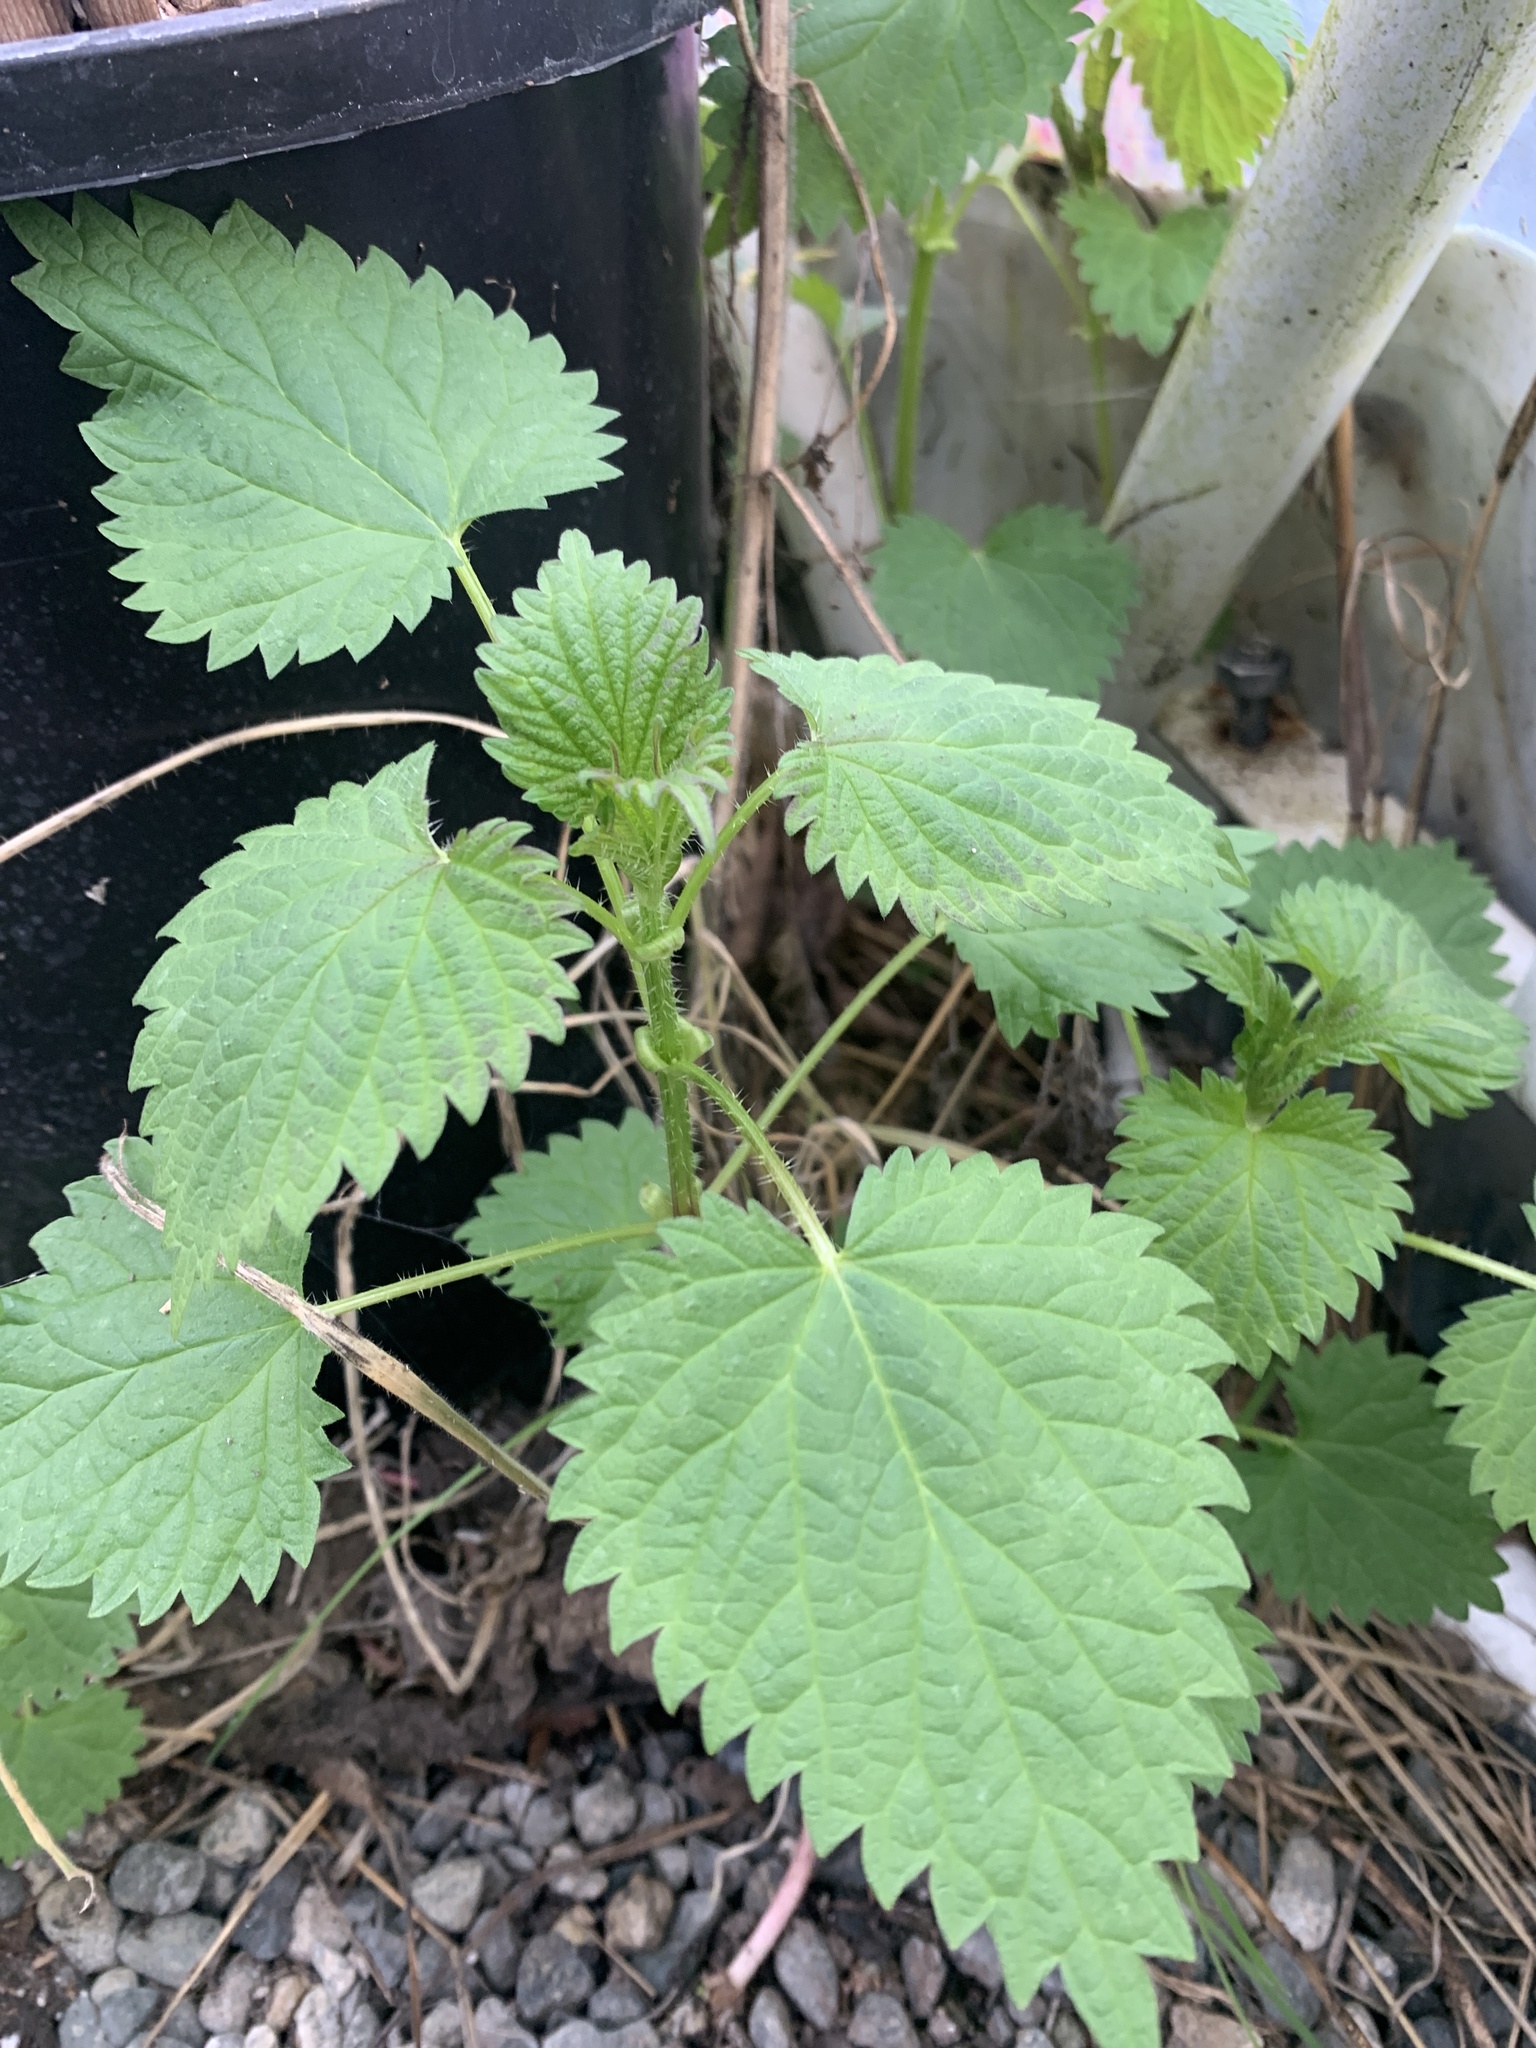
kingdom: Plantae
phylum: Tracheophyta
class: Magnoliopsida
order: Rosales
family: Urticaceae
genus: Urtica
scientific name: Urtica dioica
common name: Common nettle
